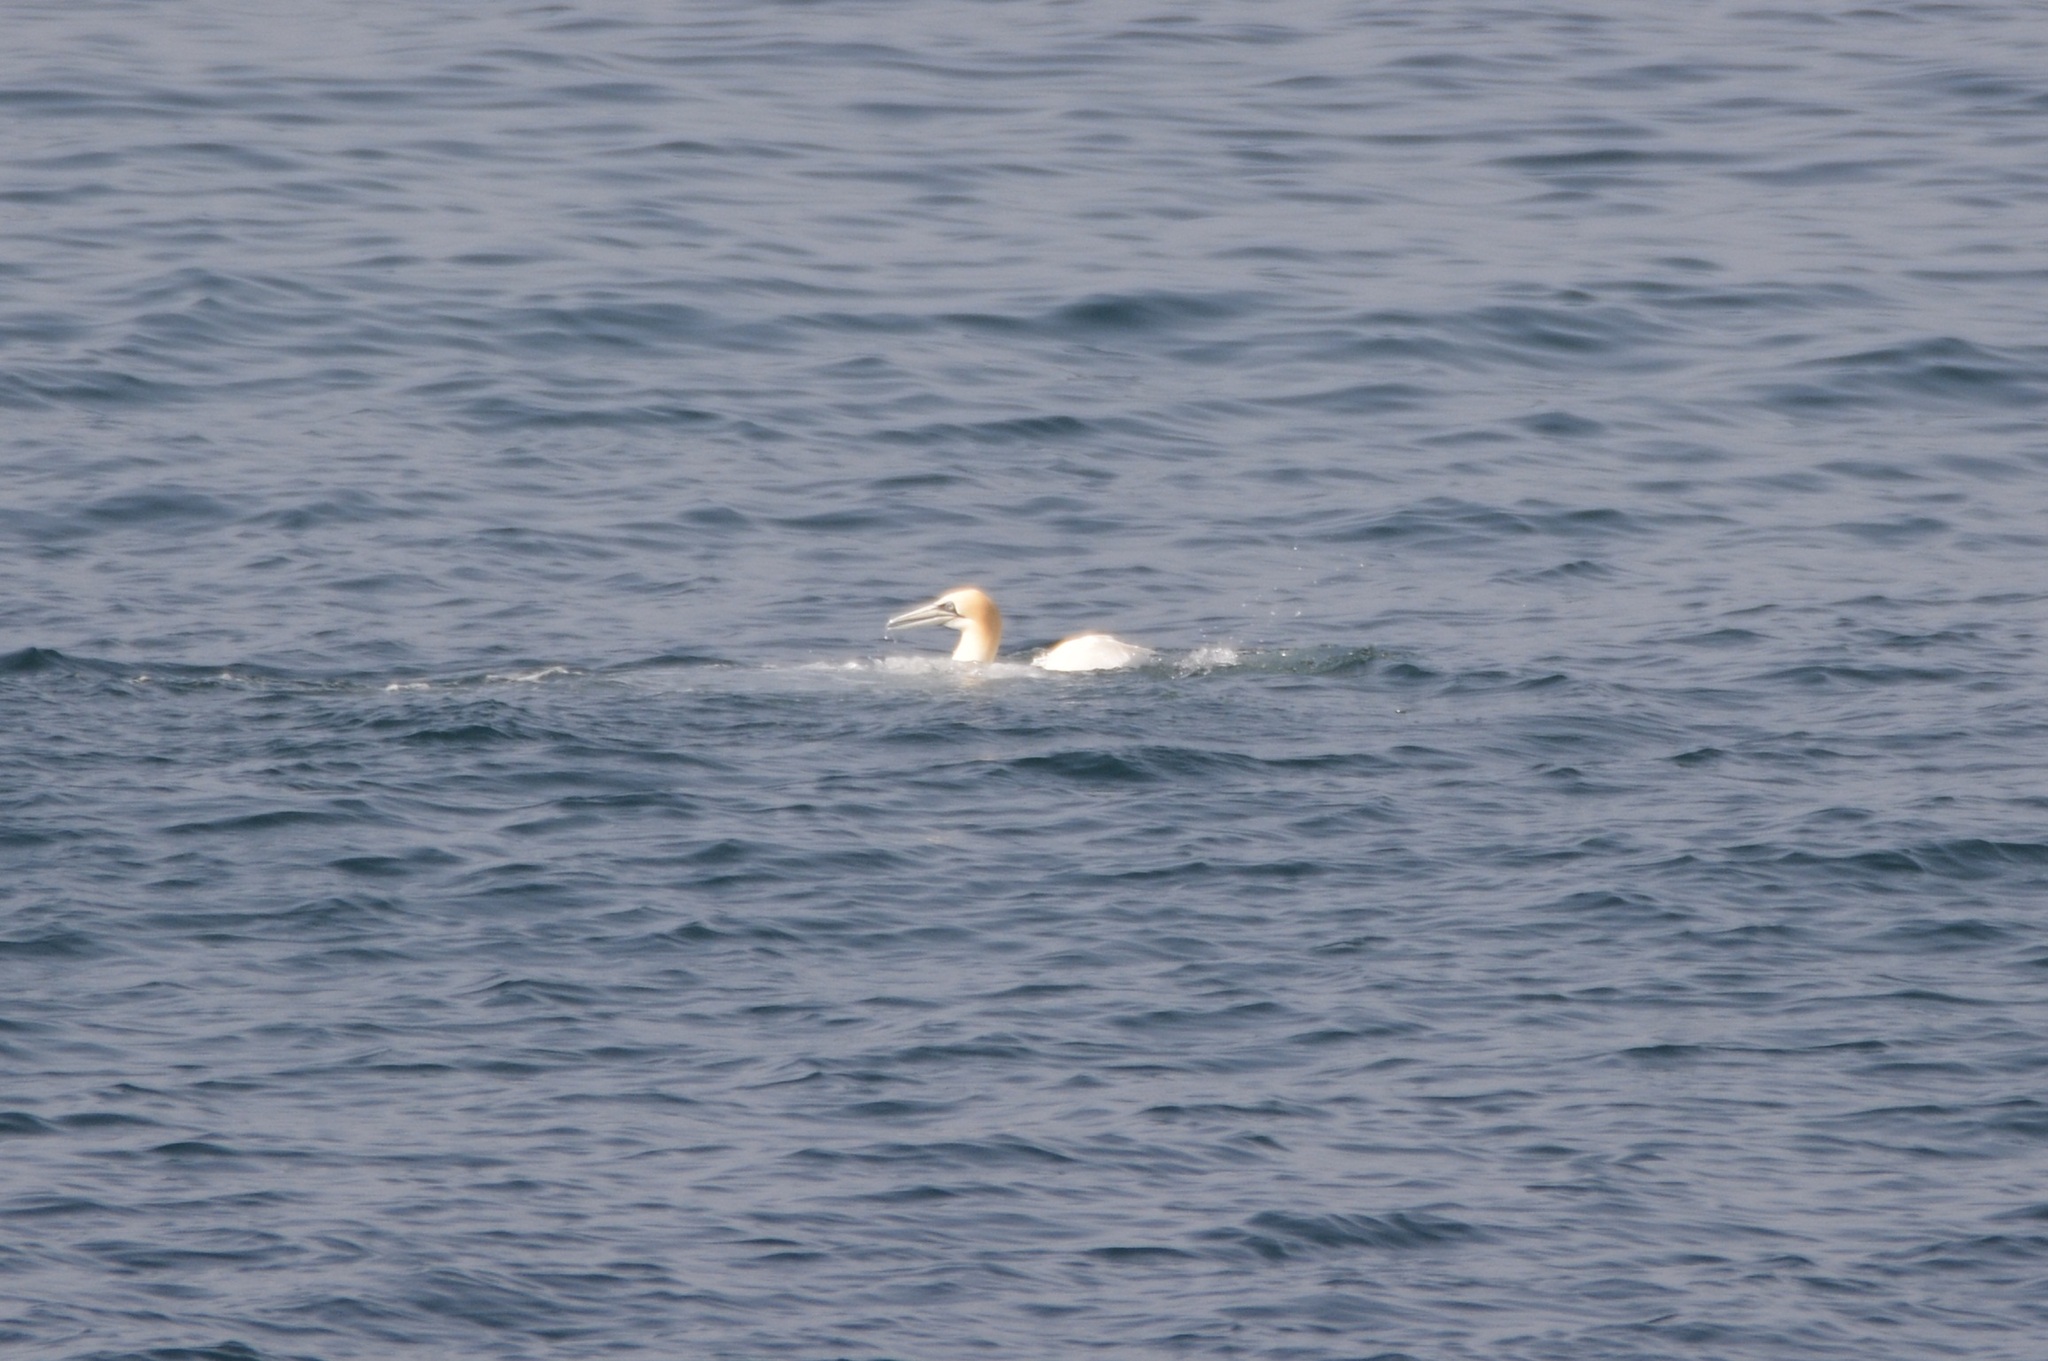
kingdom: Animalia
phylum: Chordata
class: Aves
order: Suliformes
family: Sulidae
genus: Morus
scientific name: Morus bassanus
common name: Northern gannet
